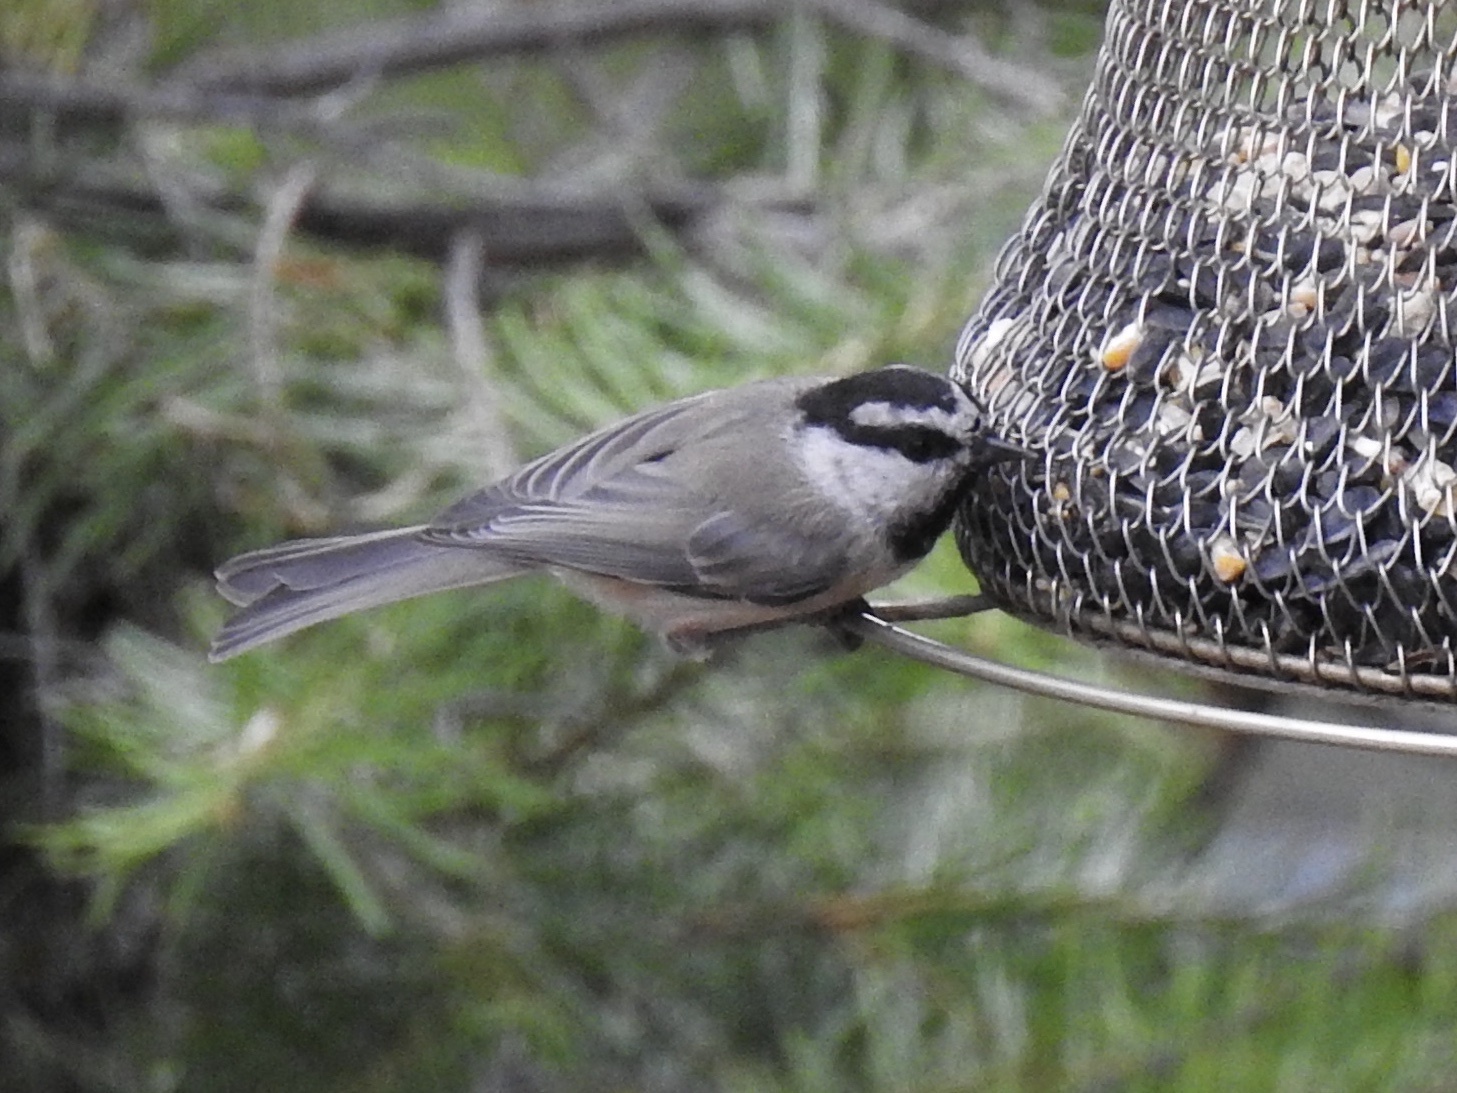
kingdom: Animalia
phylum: Chordata
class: Aves
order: Passeriformes
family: Paridae
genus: Poecile
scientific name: Poecile gambeli
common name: Mountain chickadee
